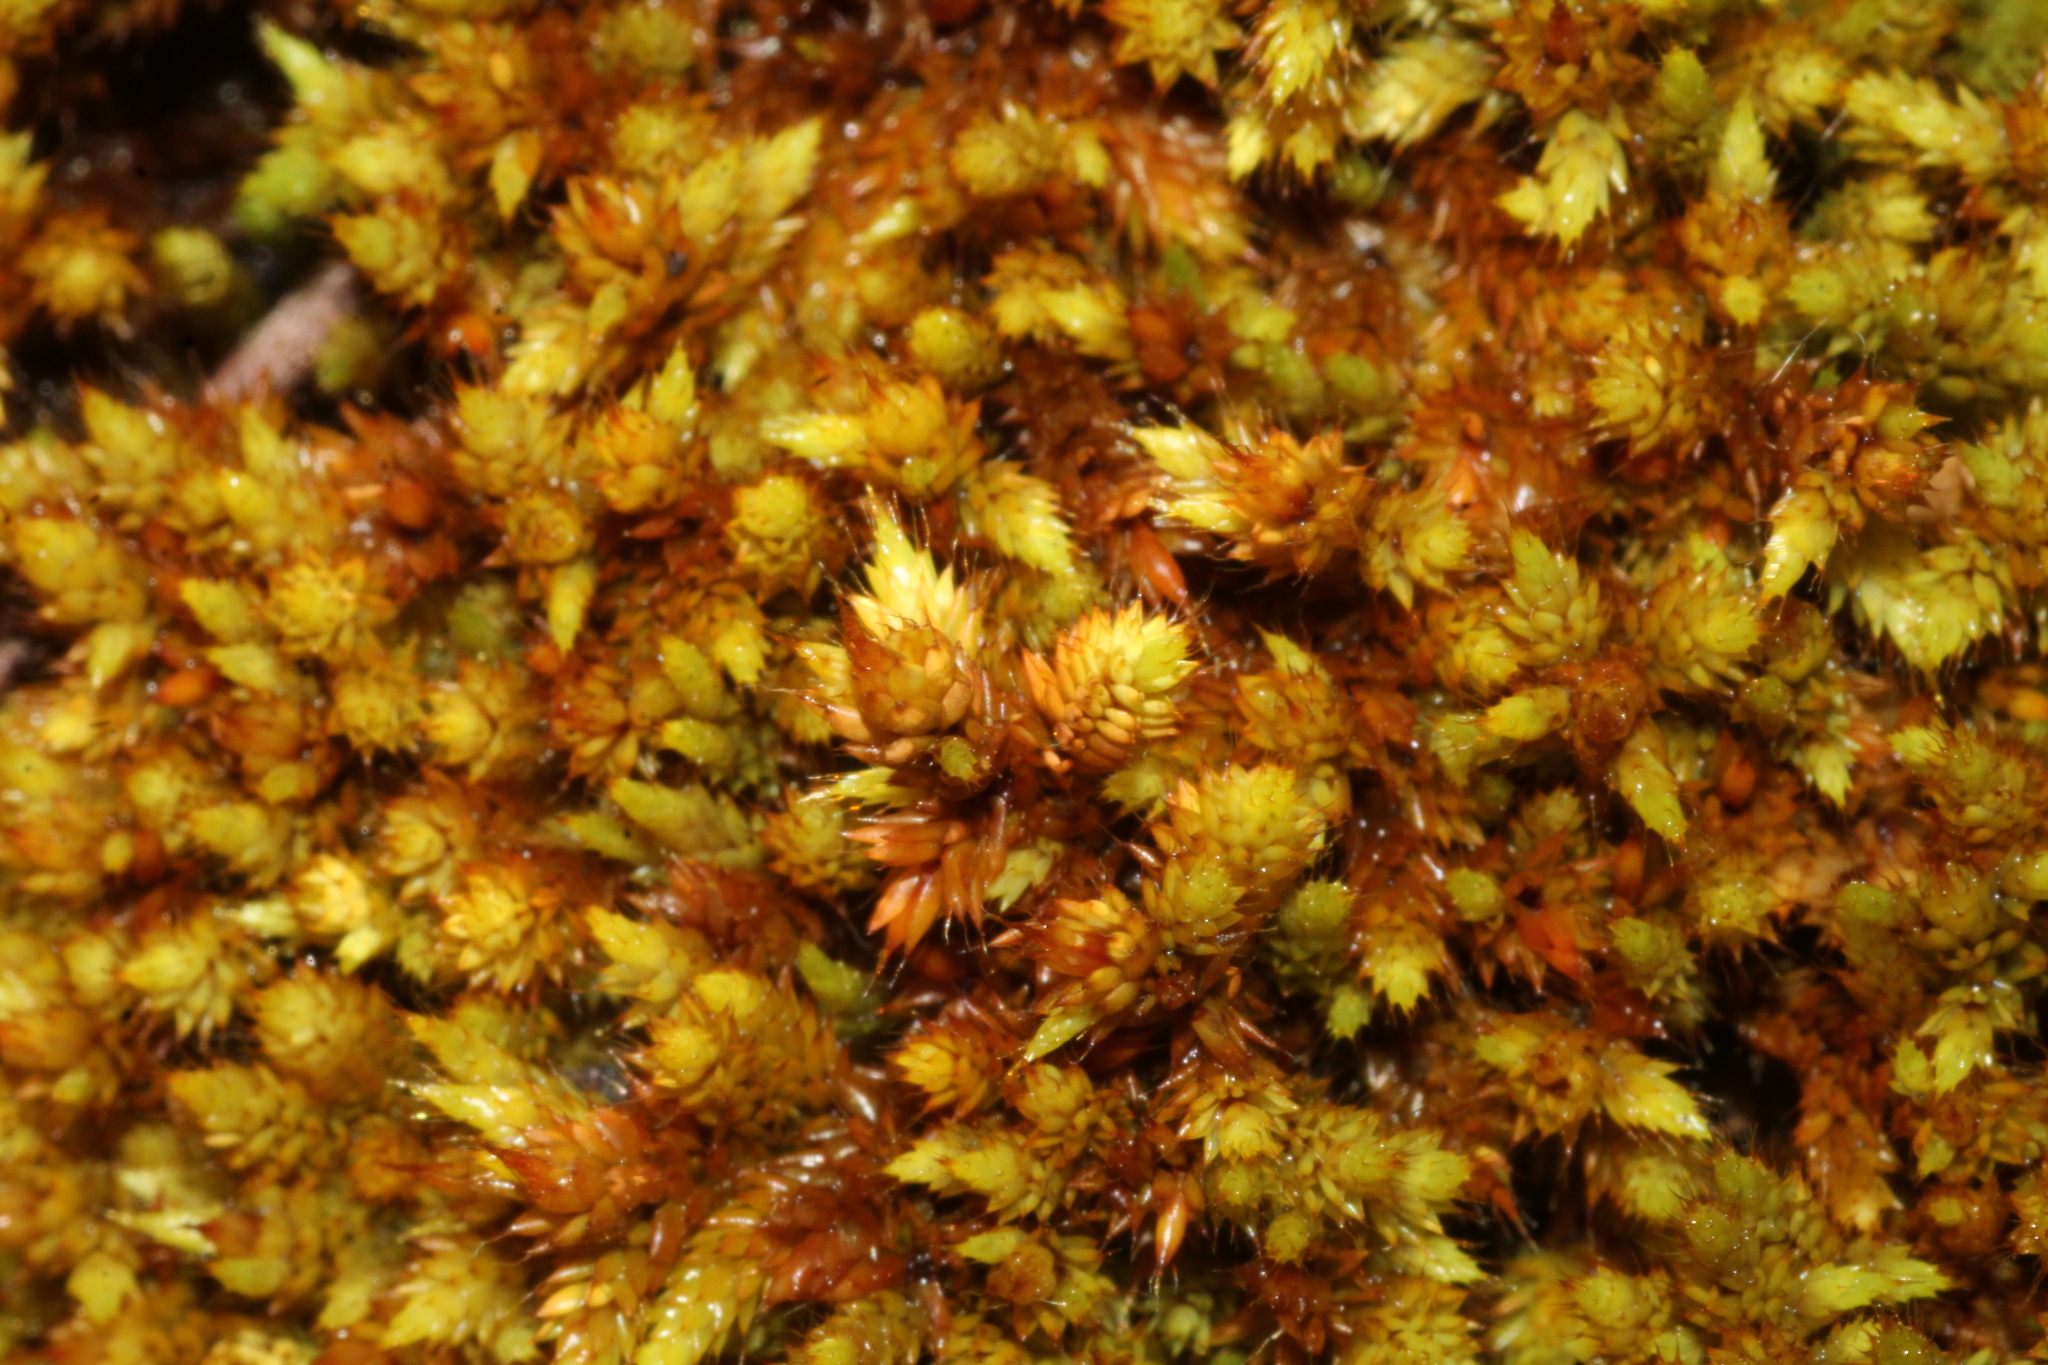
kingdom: Plantae
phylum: Bryophyta
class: Bryopsida
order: Hedwigiales
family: Hedwigiaceae
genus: Rhacocarpus
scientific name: Rhacocarpus purpurascens
